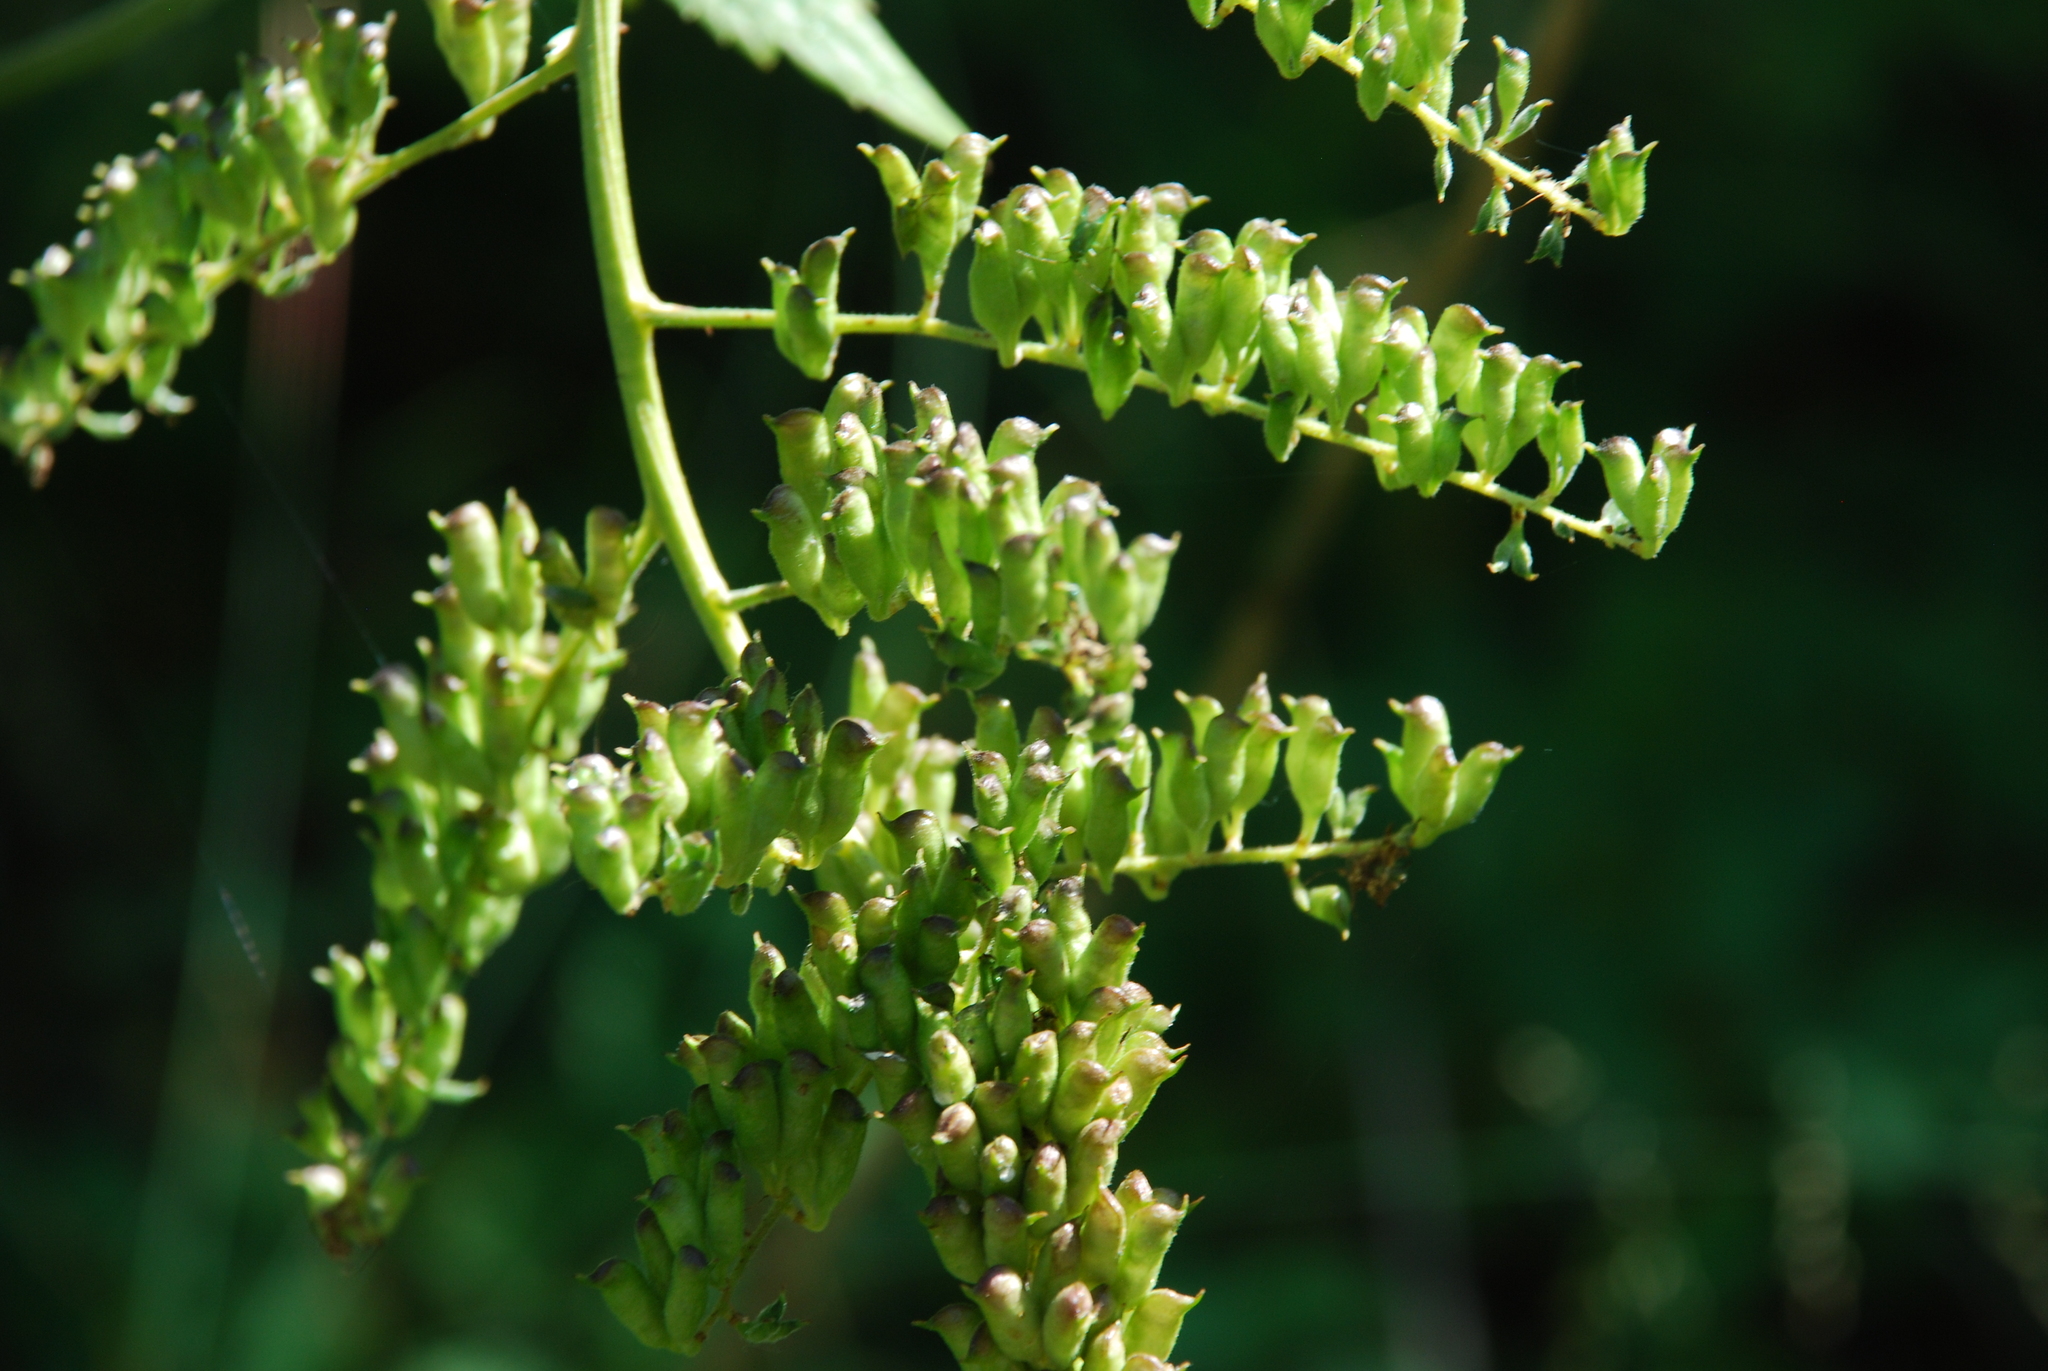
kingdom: Plantae
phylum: Tracheophyta
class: Magnoliopsida
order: Ranunculales
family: Ranunculaceae
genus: Actaea
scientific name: Actaea cimicifuga
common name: Chinese cimicifuga
